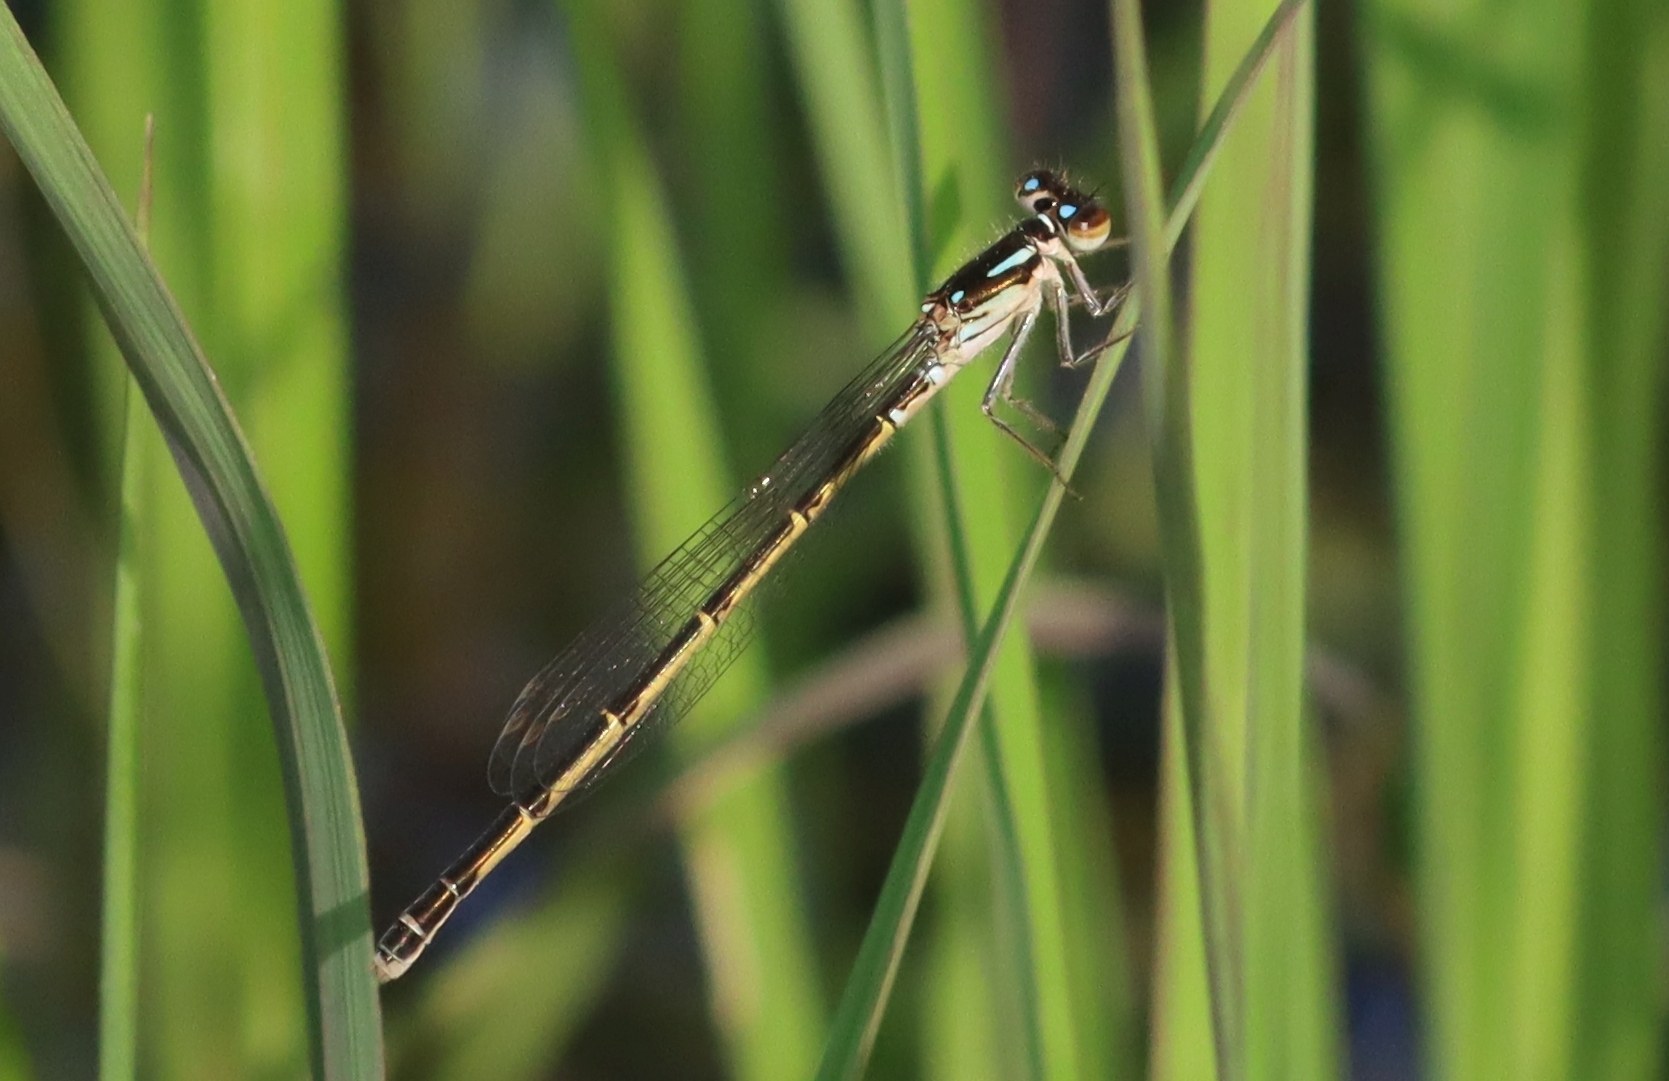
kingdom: Animalia
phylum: Arthropoda
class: Insecta
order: Odonata
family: Coenagrionidae
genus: Ischnura
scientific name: Ischnura posita
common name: Fragile forktail
